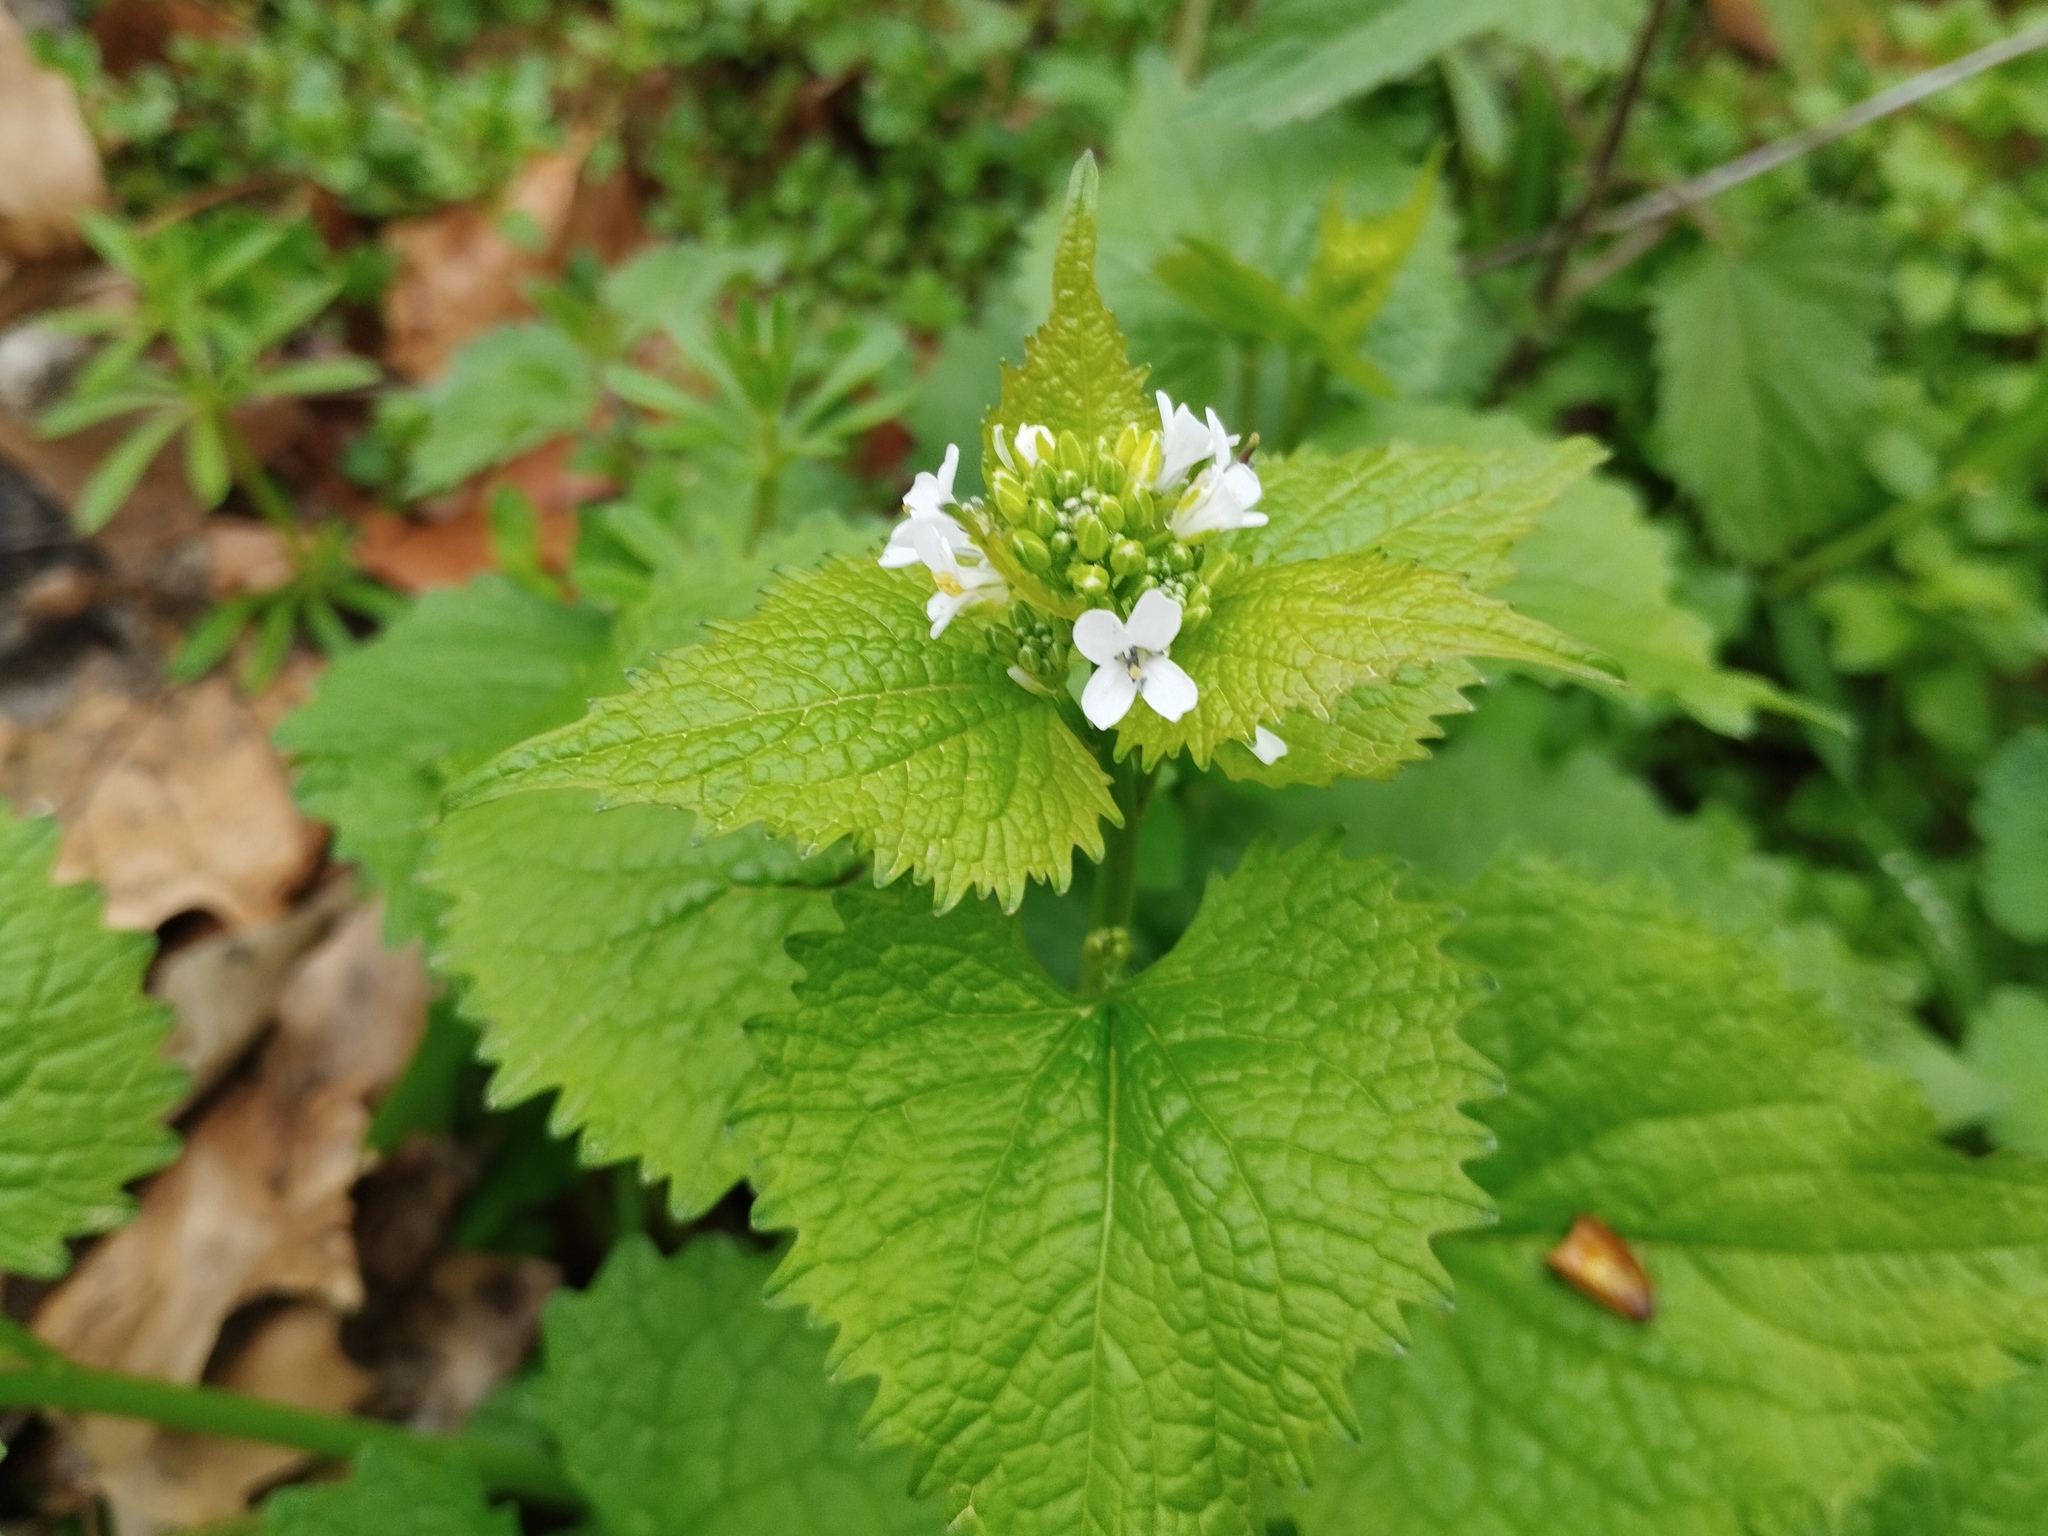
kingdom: Plantae
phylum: Tracheophyta
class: Magnoliopsida
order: Brassicales
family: Brassicaceae
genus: Alliaria
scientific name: Alliaria petiolata
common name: Garlic mustard
